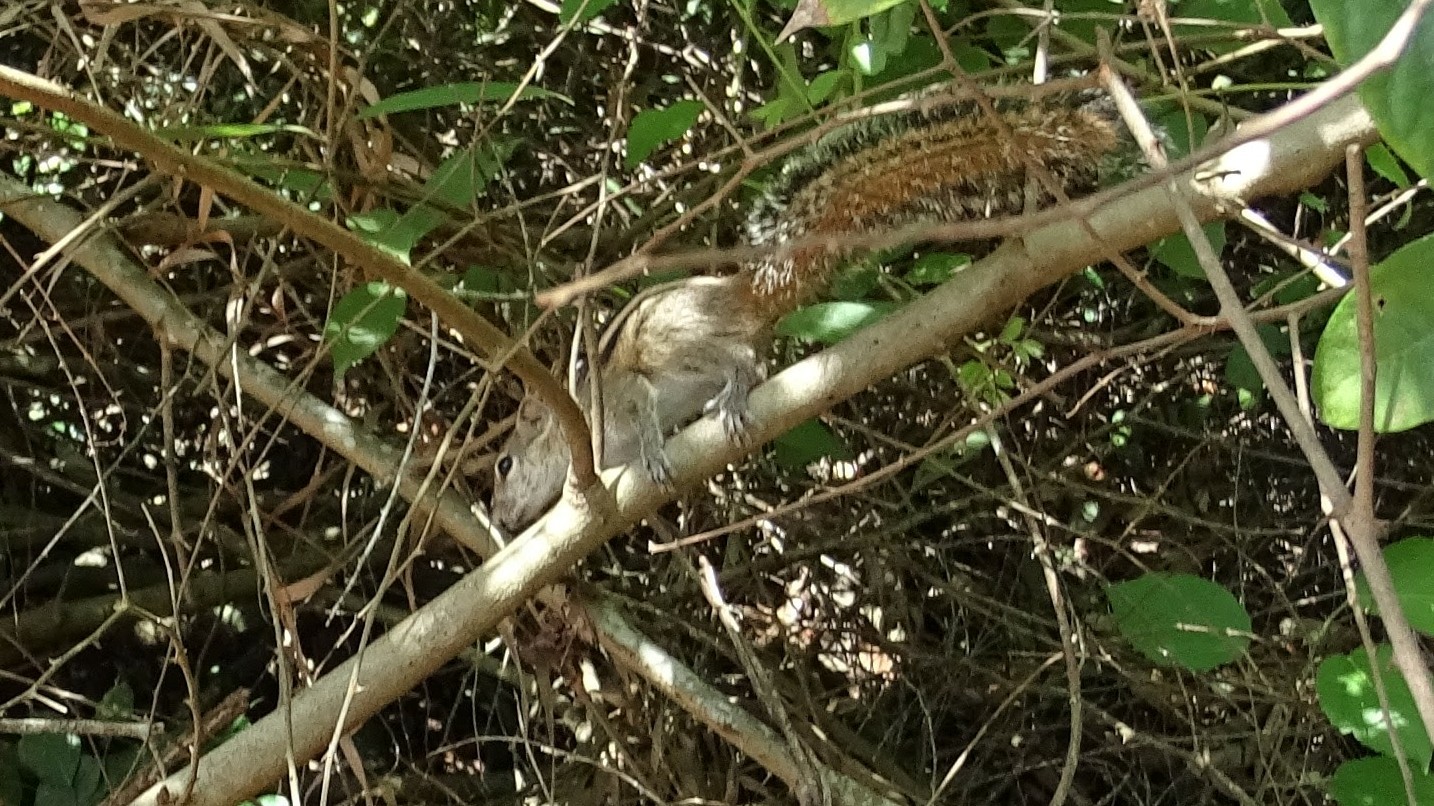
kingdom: Animalia
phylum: Chordata
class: Mammalia
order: Rodentia
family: Sciuridae
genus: Funambulus
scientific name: Funambulus palmarum
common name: Indian palm squirrel
